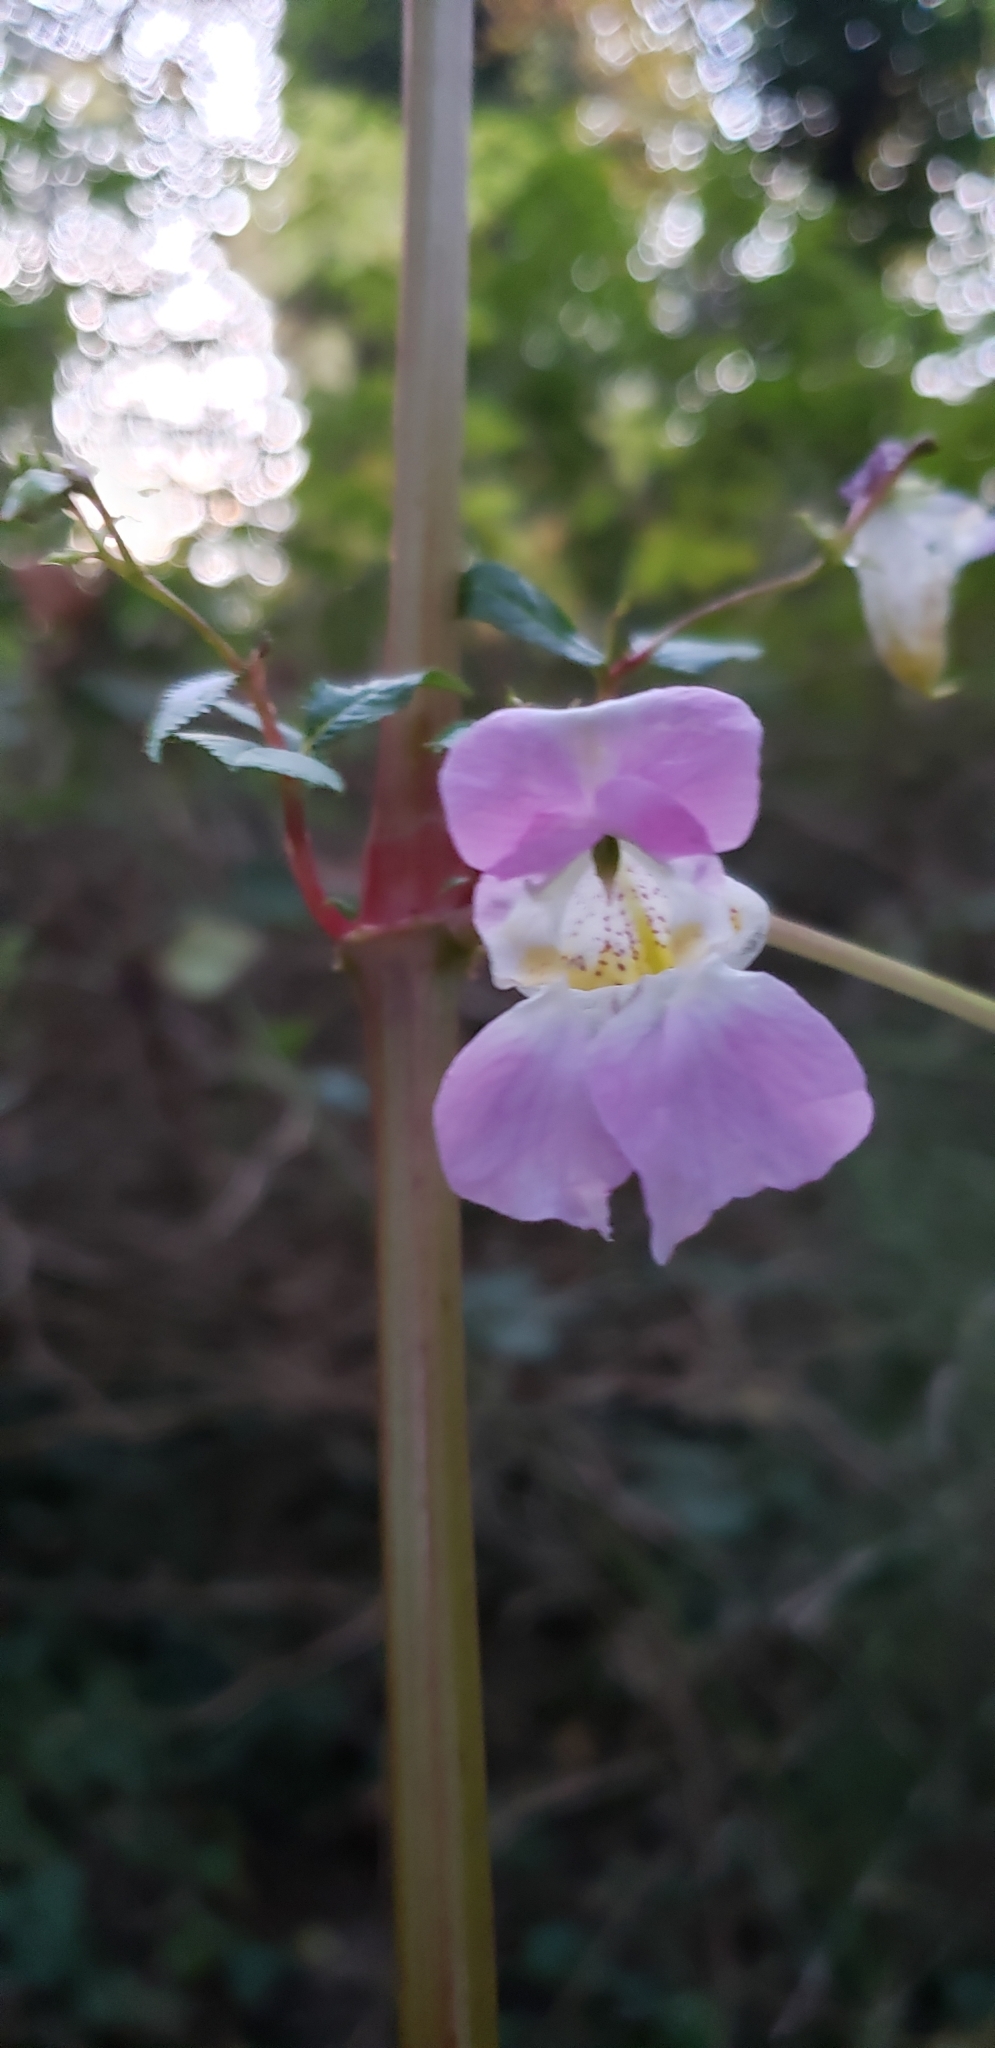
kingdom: Plantae
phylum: Tracheophyta
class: Magnoliopsida
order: Ericales
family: Balsaminaceae
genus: Impatiens
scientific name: Impatiens glandulifera
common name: Himalayan balsam
